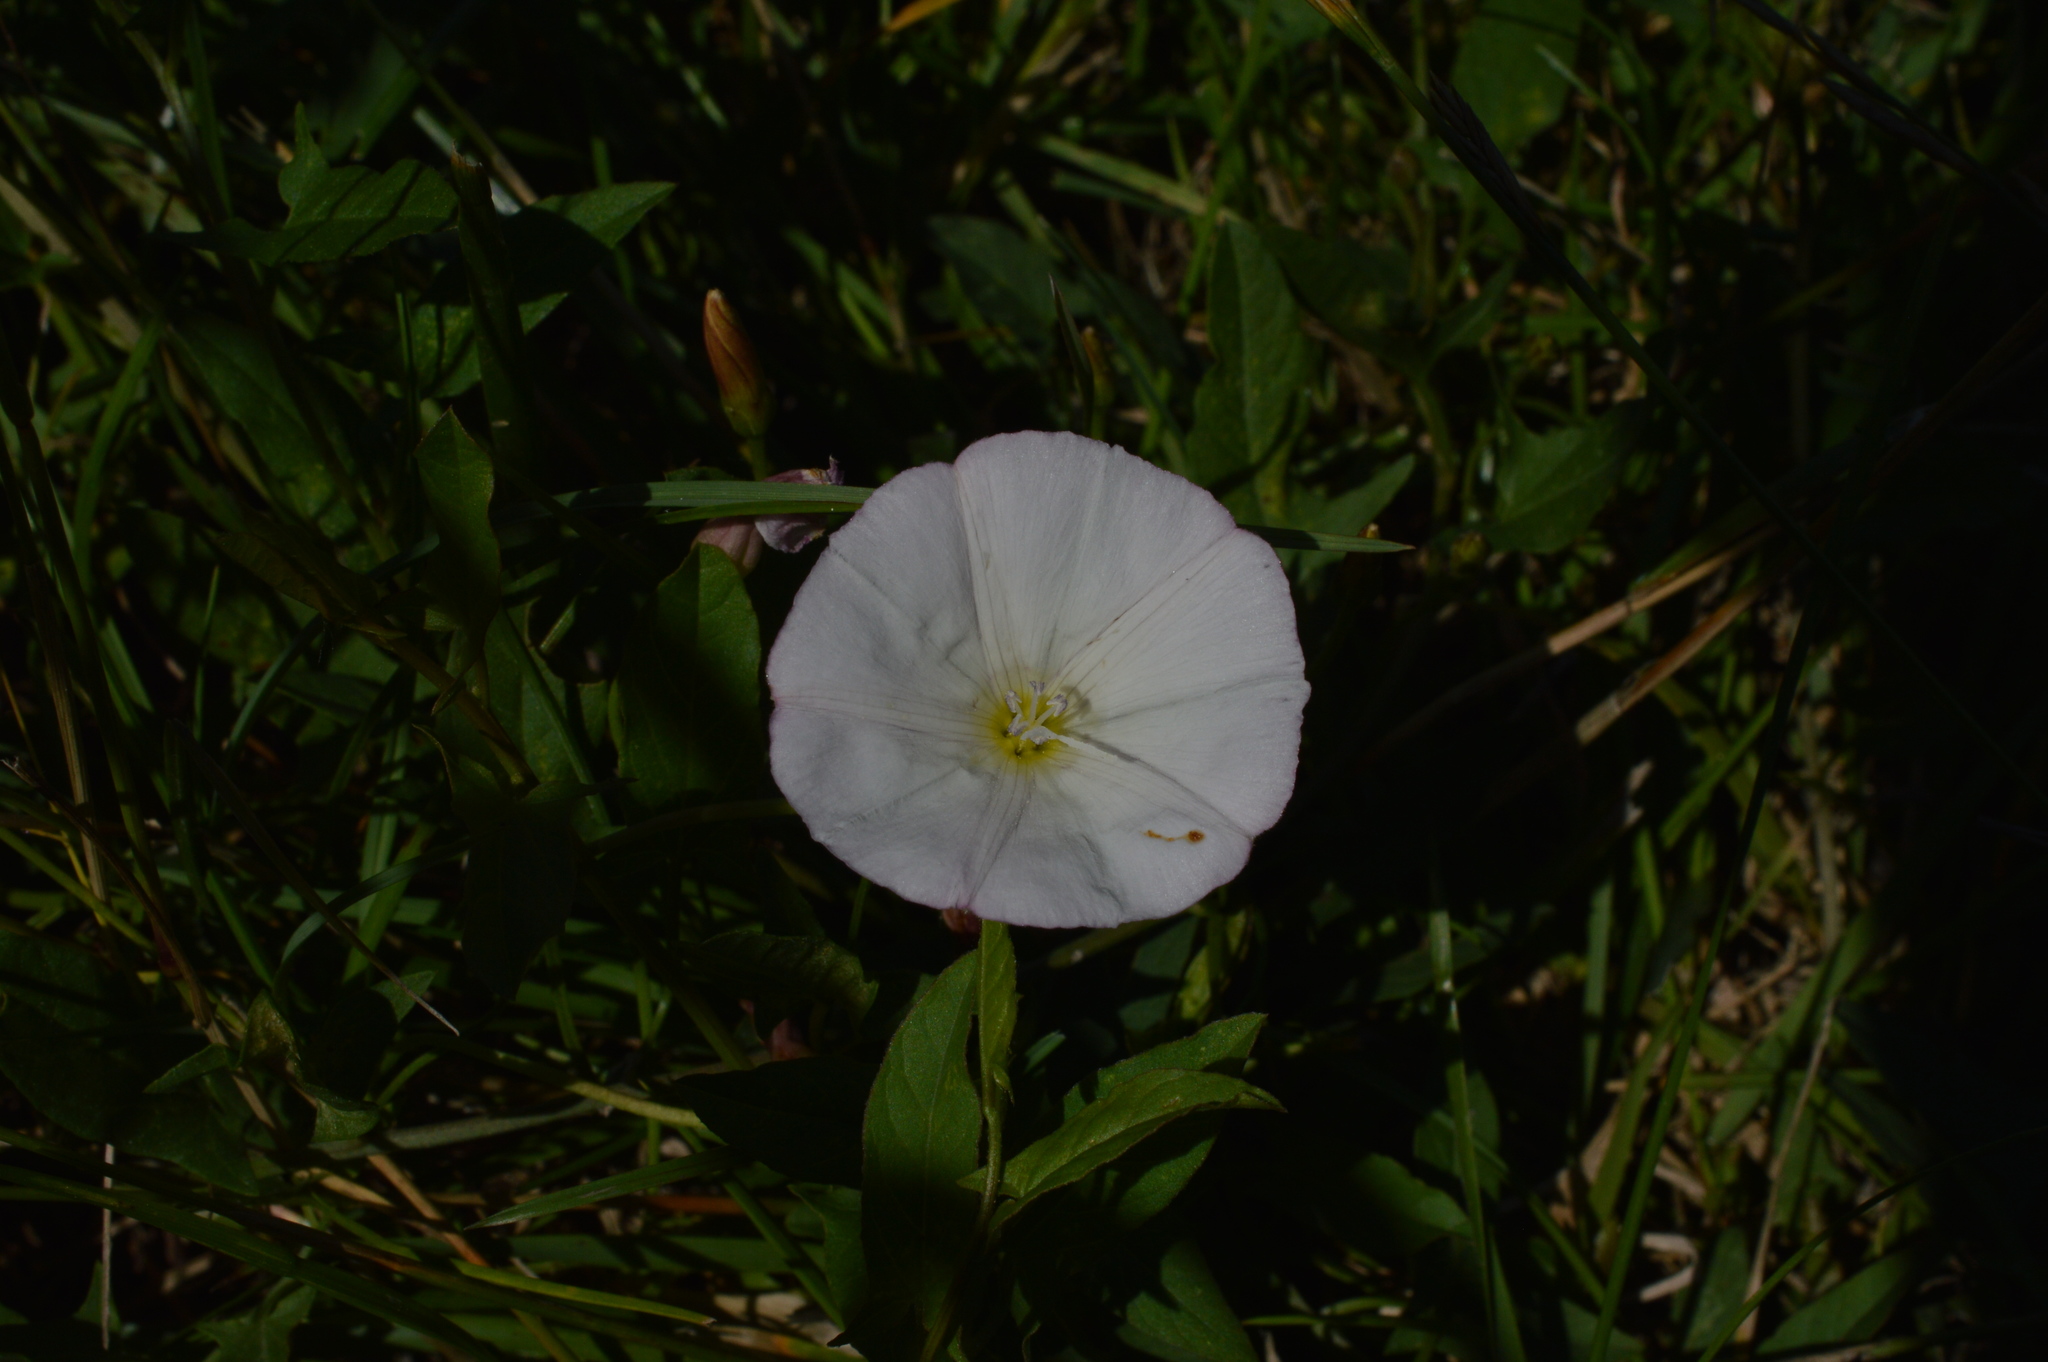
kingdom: Plantae
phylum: Tracheophyta
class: Magnoliopsida
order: Solanales
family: Convolvulaceae
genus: Convolvulus
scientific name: Convolvulus arvensis
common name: Field bindweed
